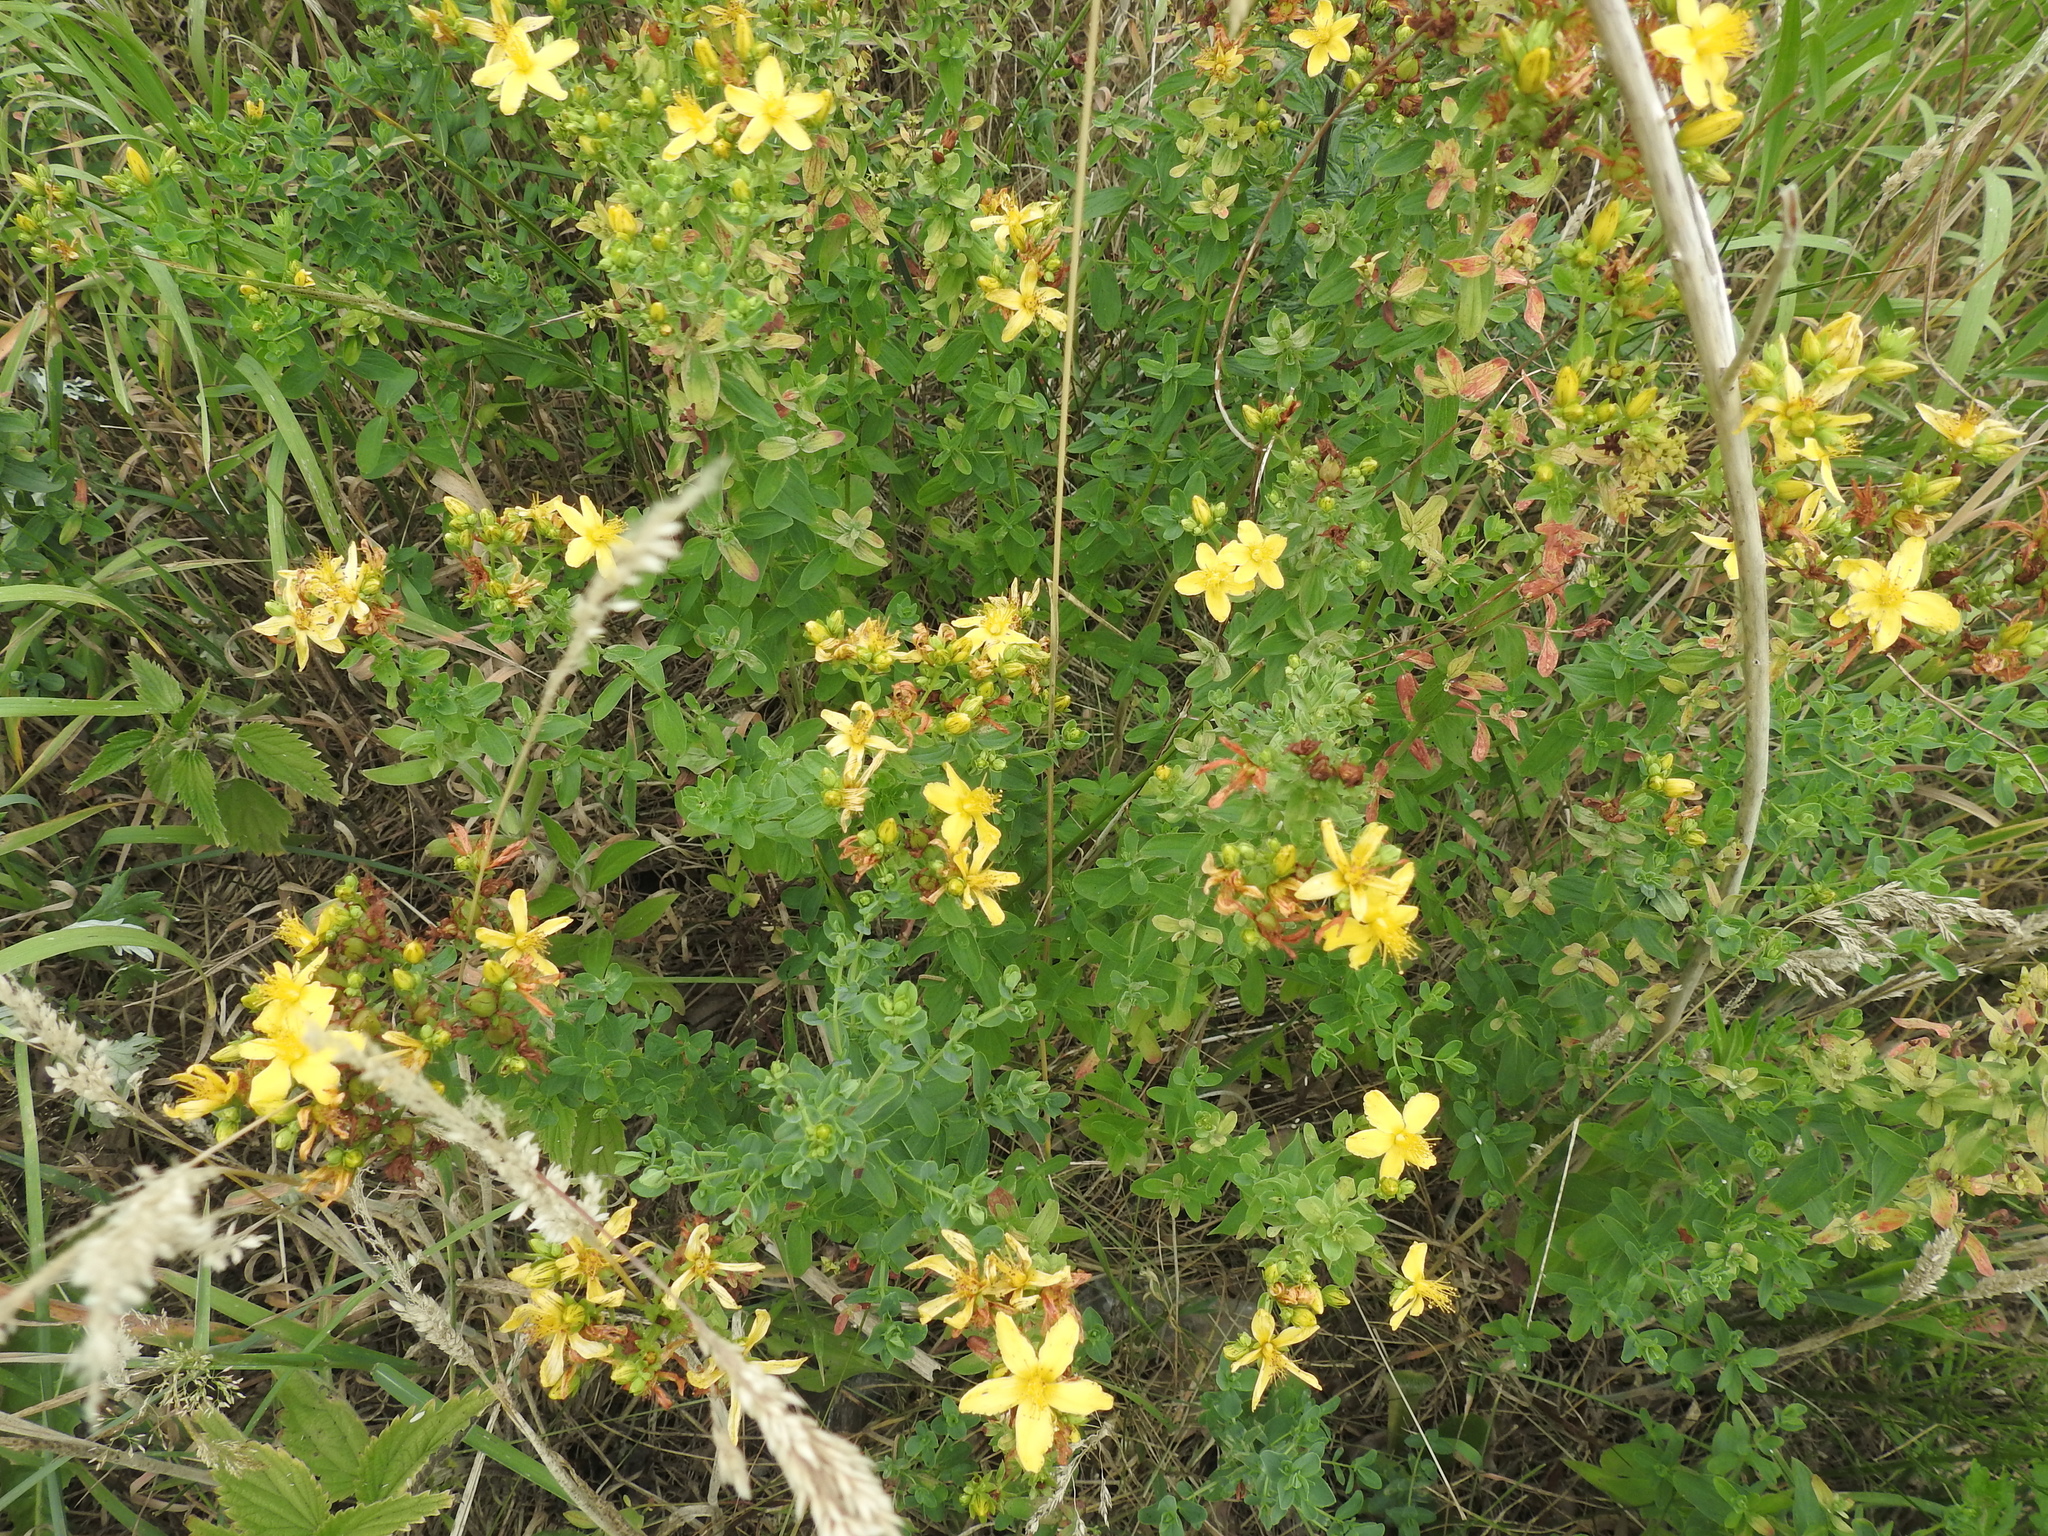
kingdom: Plantae
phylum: Tracheophyta
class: Magnoliopsida
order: Malpighiales
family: Hypericaceae
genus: Hypericum
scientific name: Hypericum perforatum
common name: Common st. johnswort
